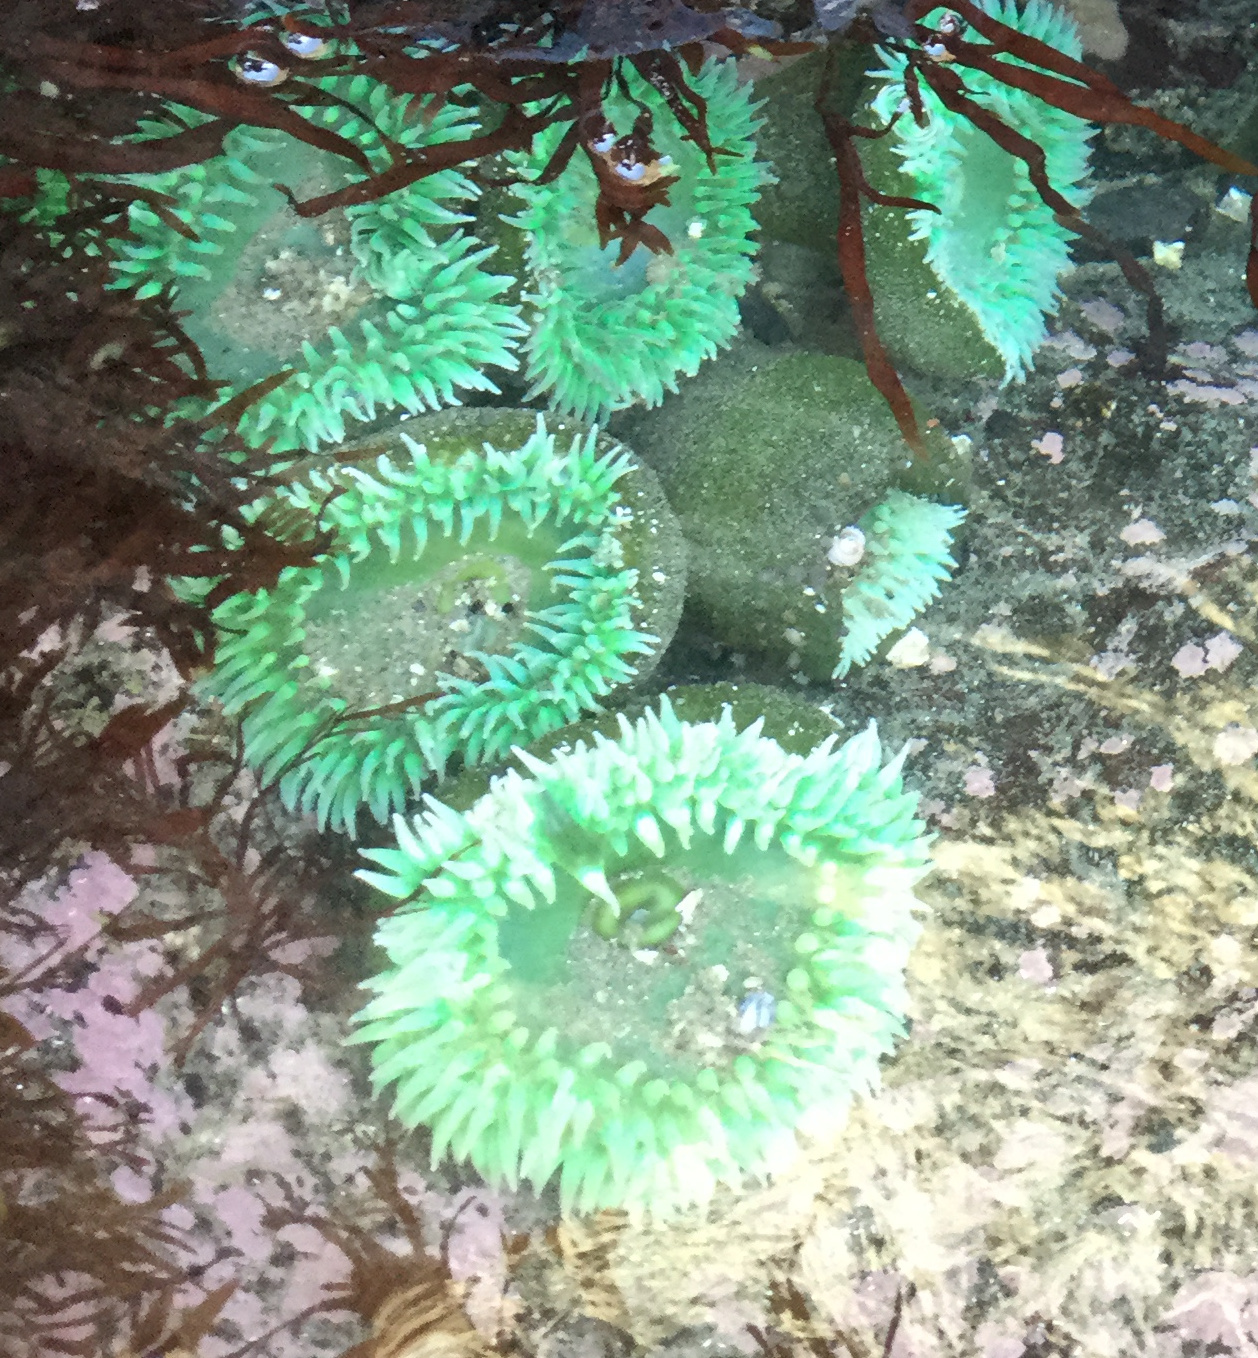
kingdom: Animalia
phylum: Cnidaria
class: Anthozoa
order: Actiniaria
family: Actiniidae
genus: Anthopleura
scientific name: Anthopleura xanthogrammica
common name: Giant green anemone
